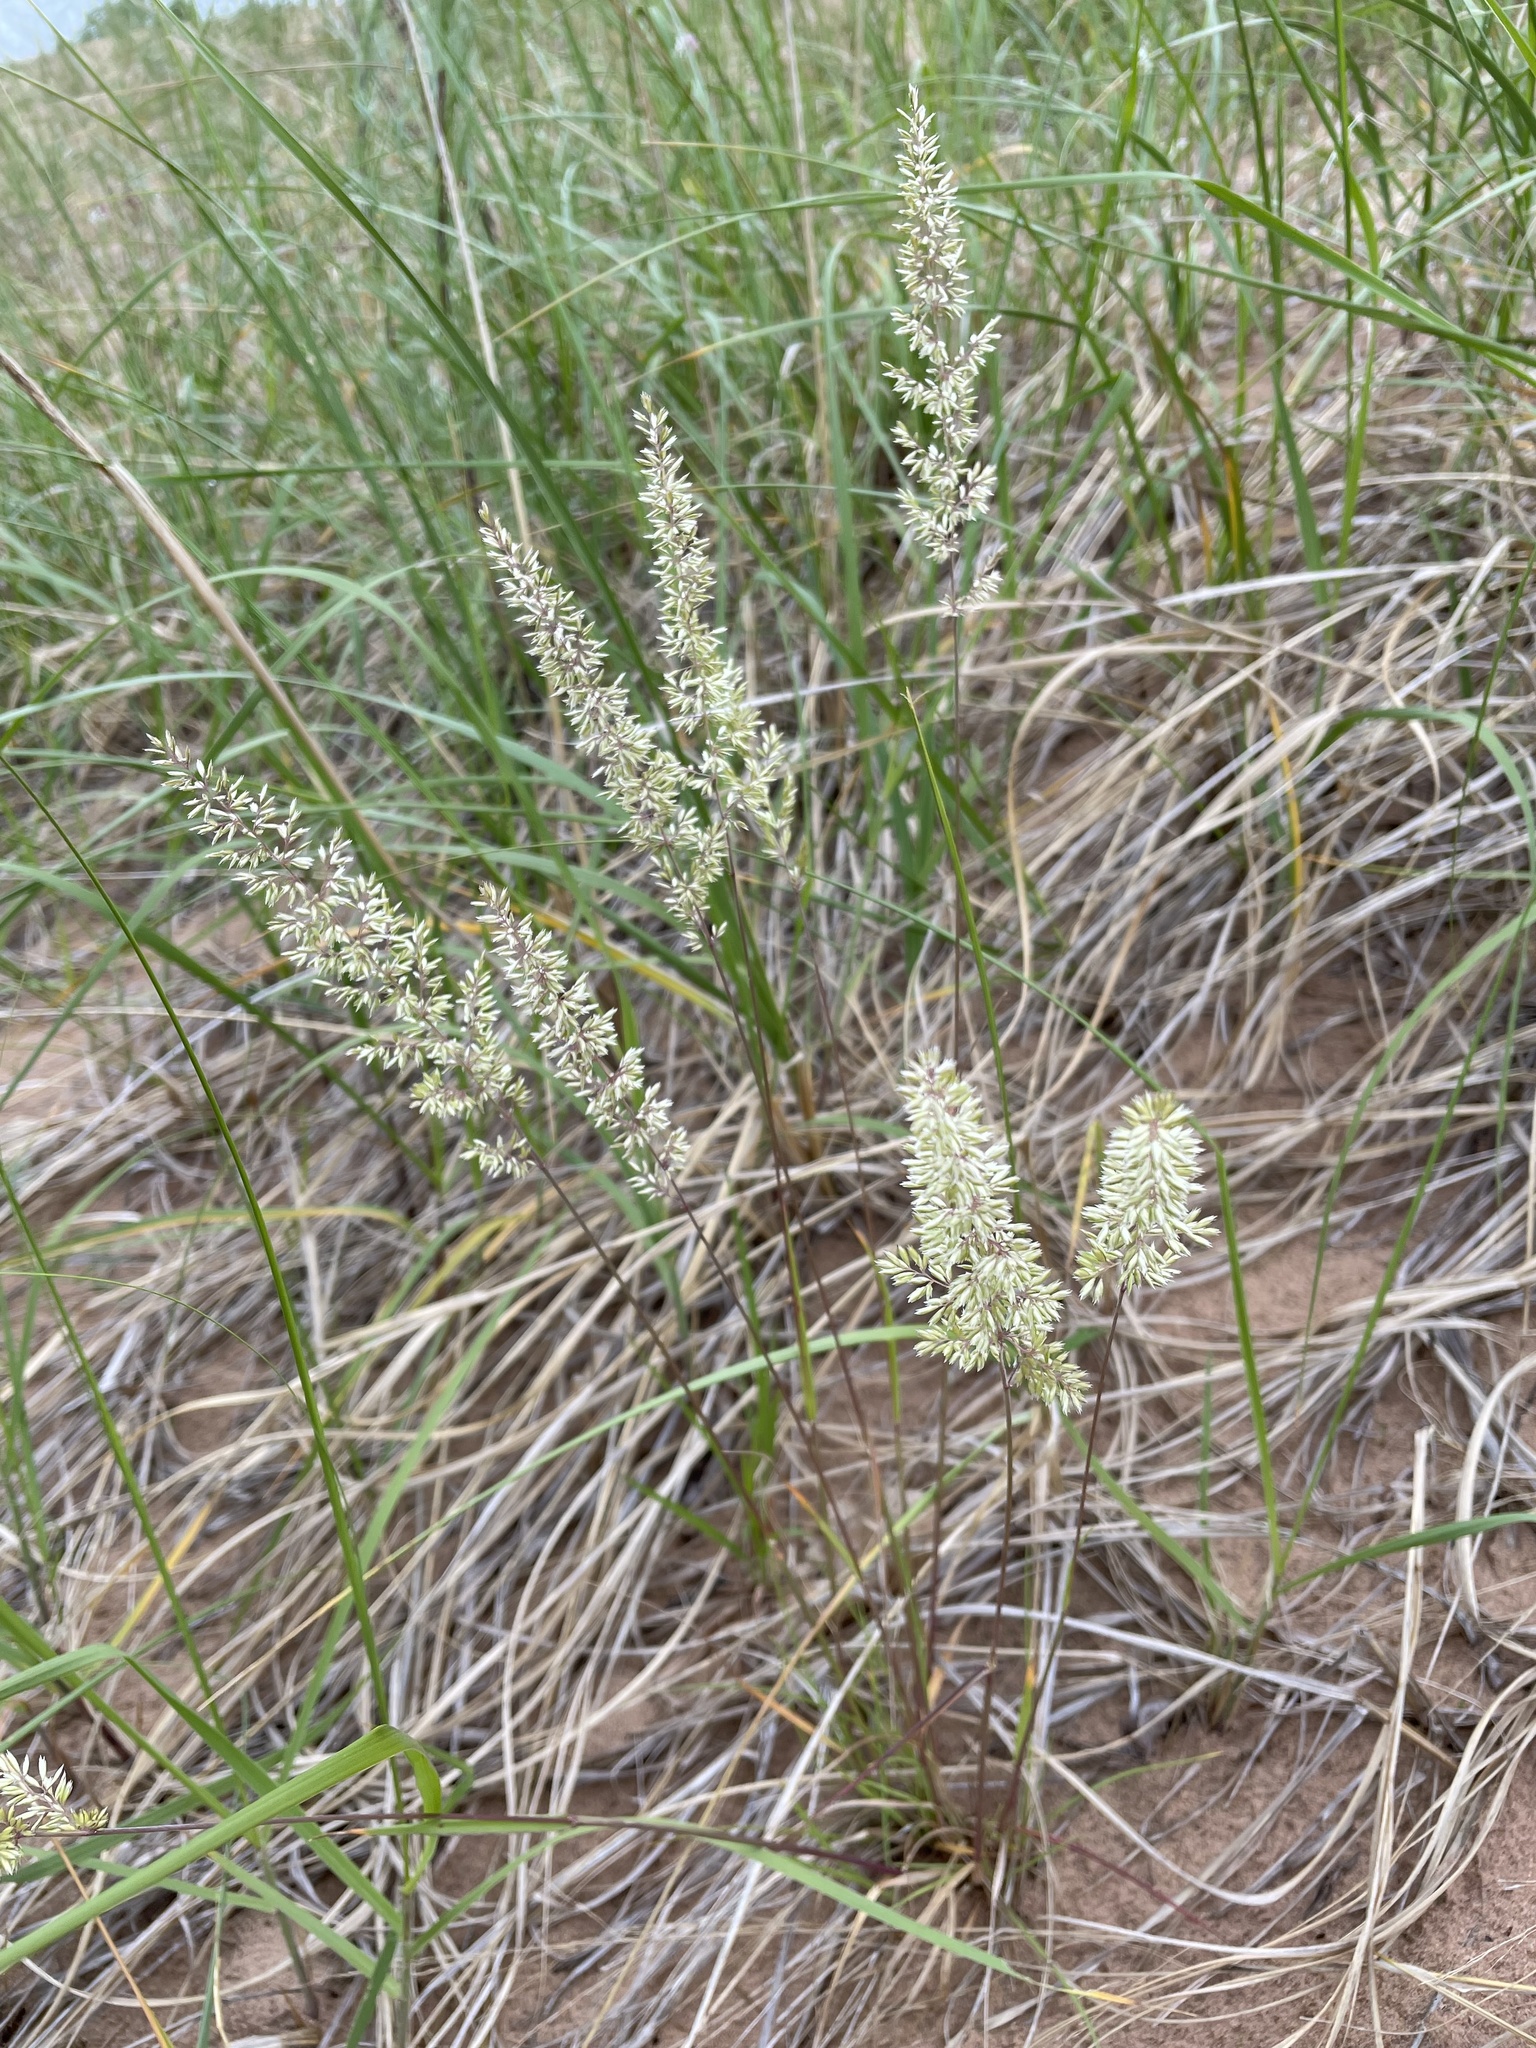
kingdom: Plantae
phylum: Tracheophyta
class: Liliopsida
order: Poales
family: Poaceae
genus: Koeleria
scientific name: Koeleria macrantha
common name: Crested hair-grass
